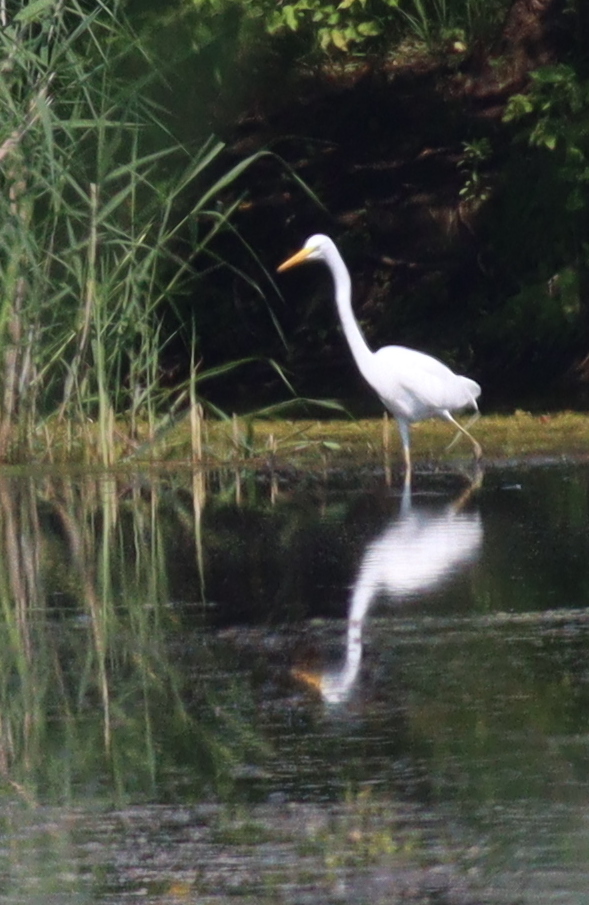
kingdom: Animalia
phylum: Chordata
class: Aves
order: Pelecaniformes
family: Ardeidae
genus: Ardea
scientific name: Ardea alba
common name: Great egret
